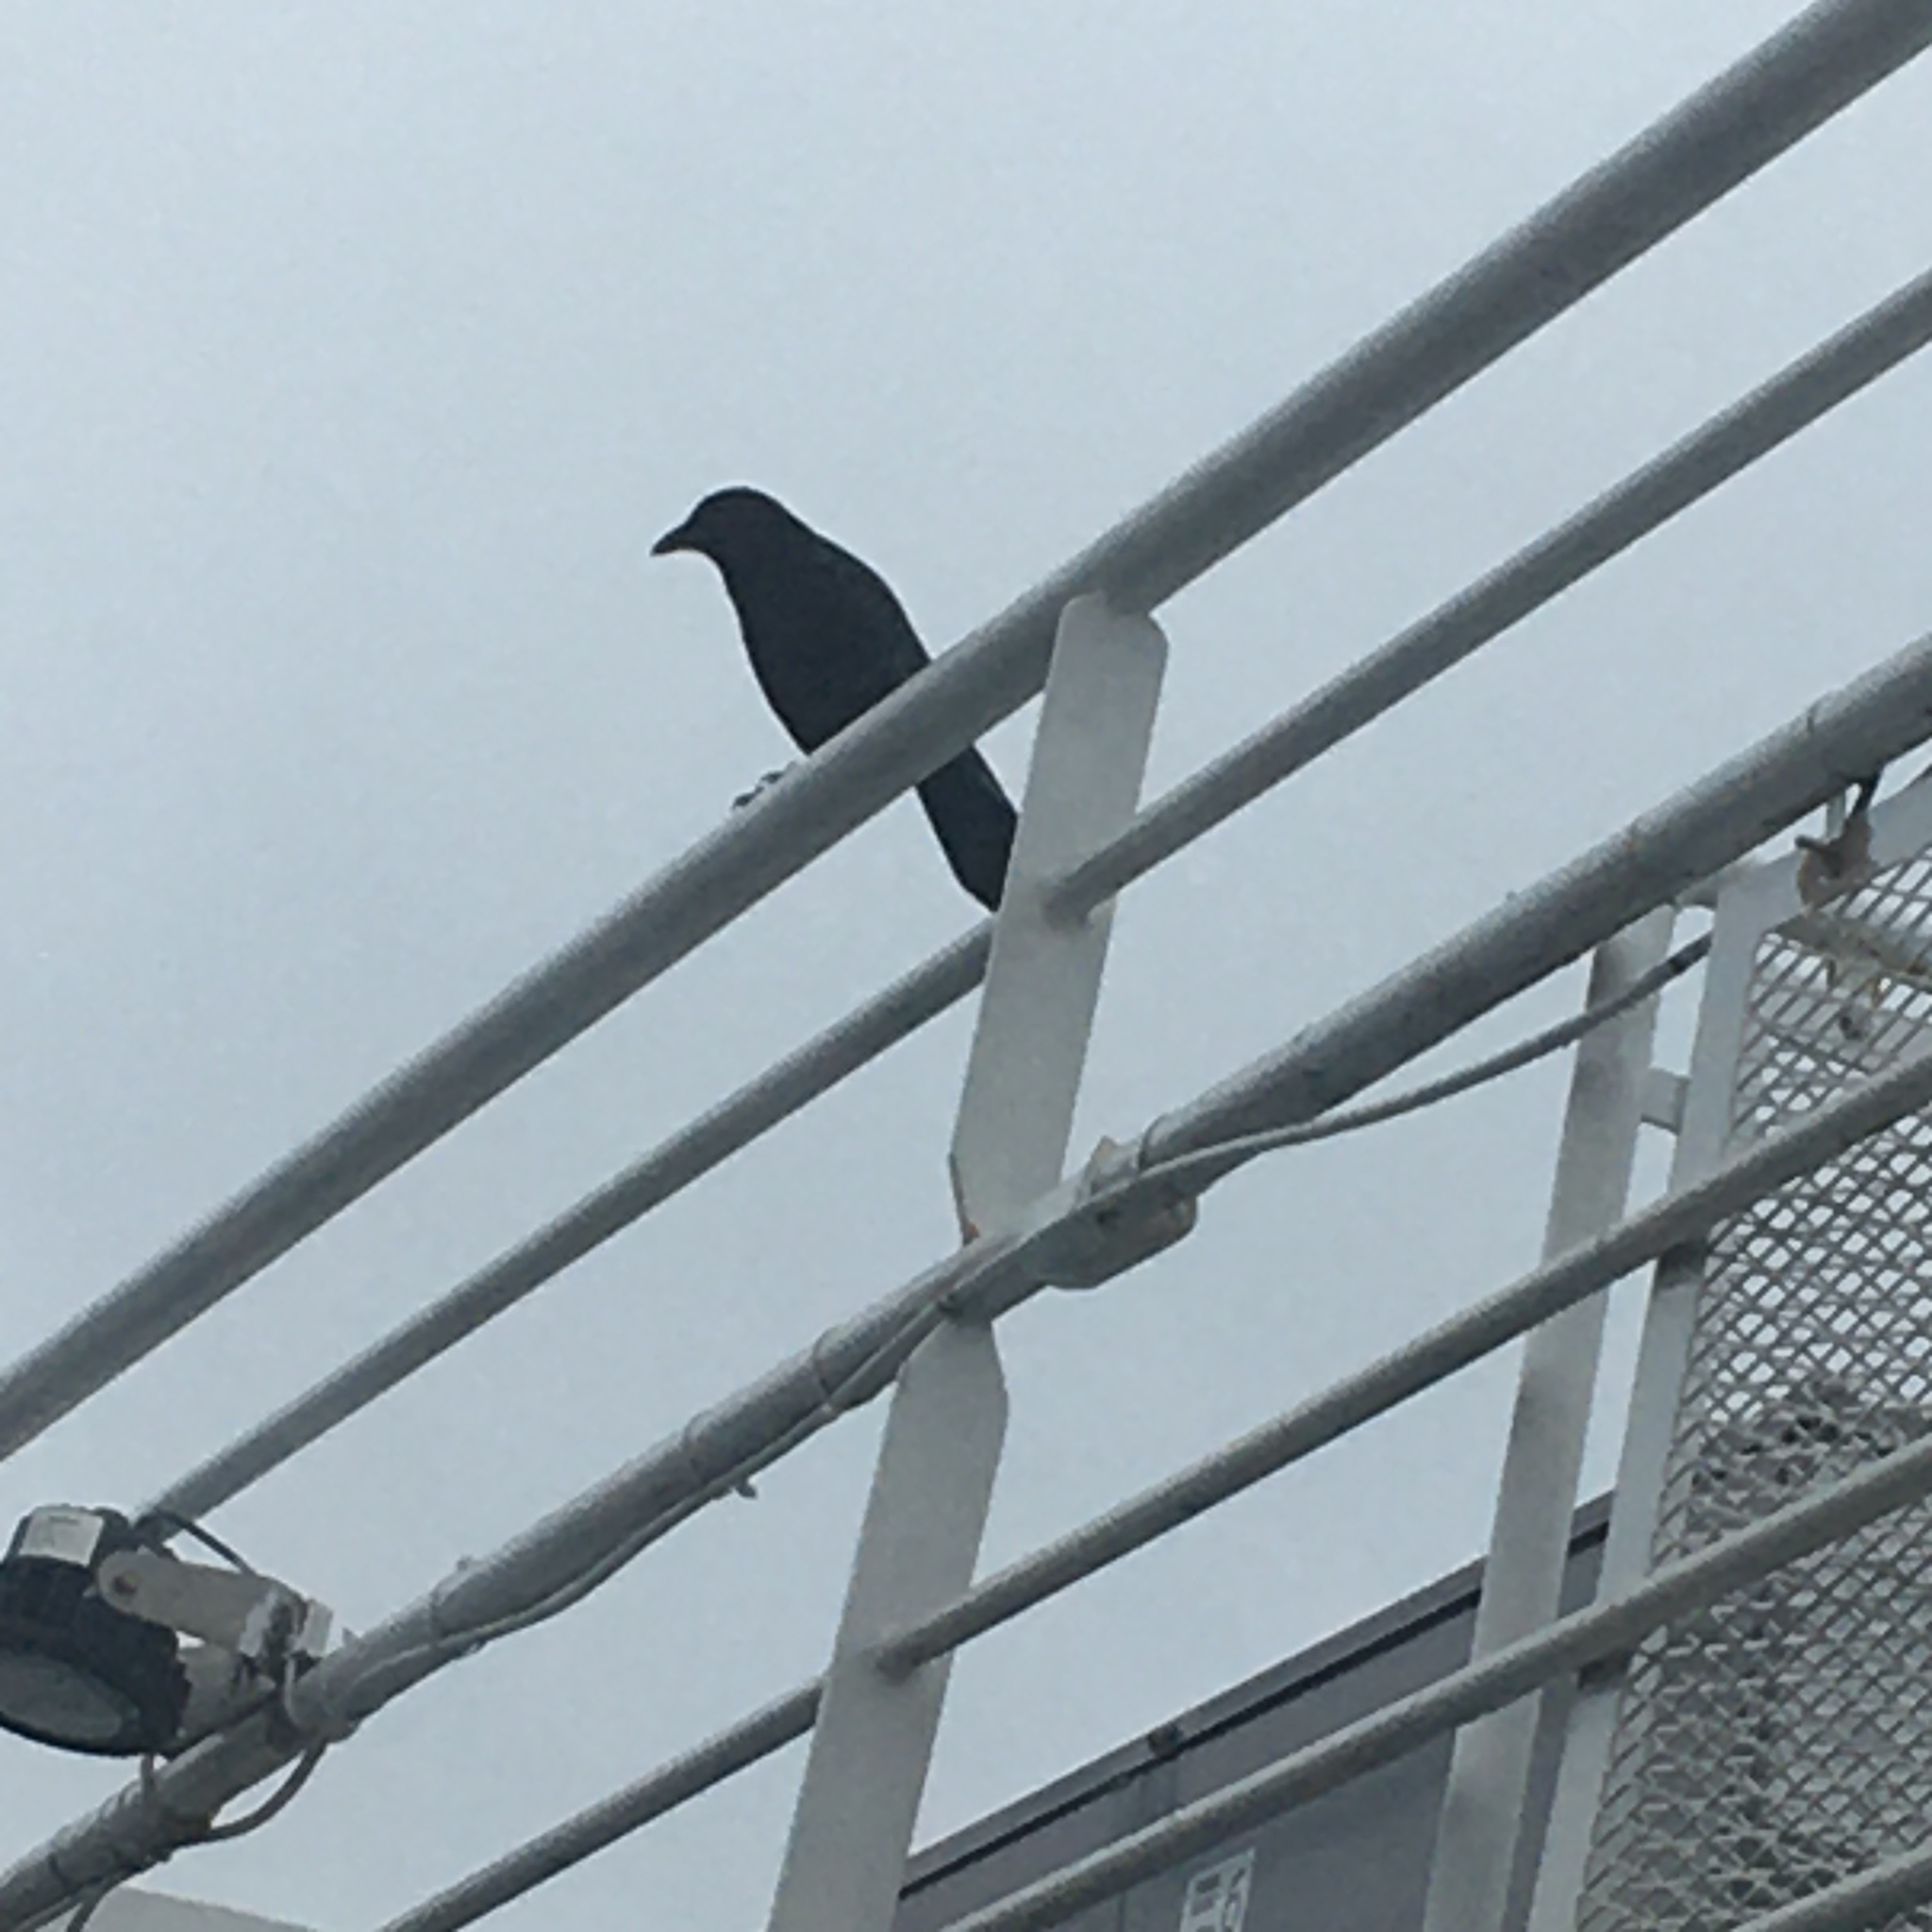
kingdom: Animalia
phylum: Chordata
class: Aves
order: Passeriformes
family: Corvidae
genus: Corvus
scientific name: Corvus brachyrhynchos
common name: American crow
